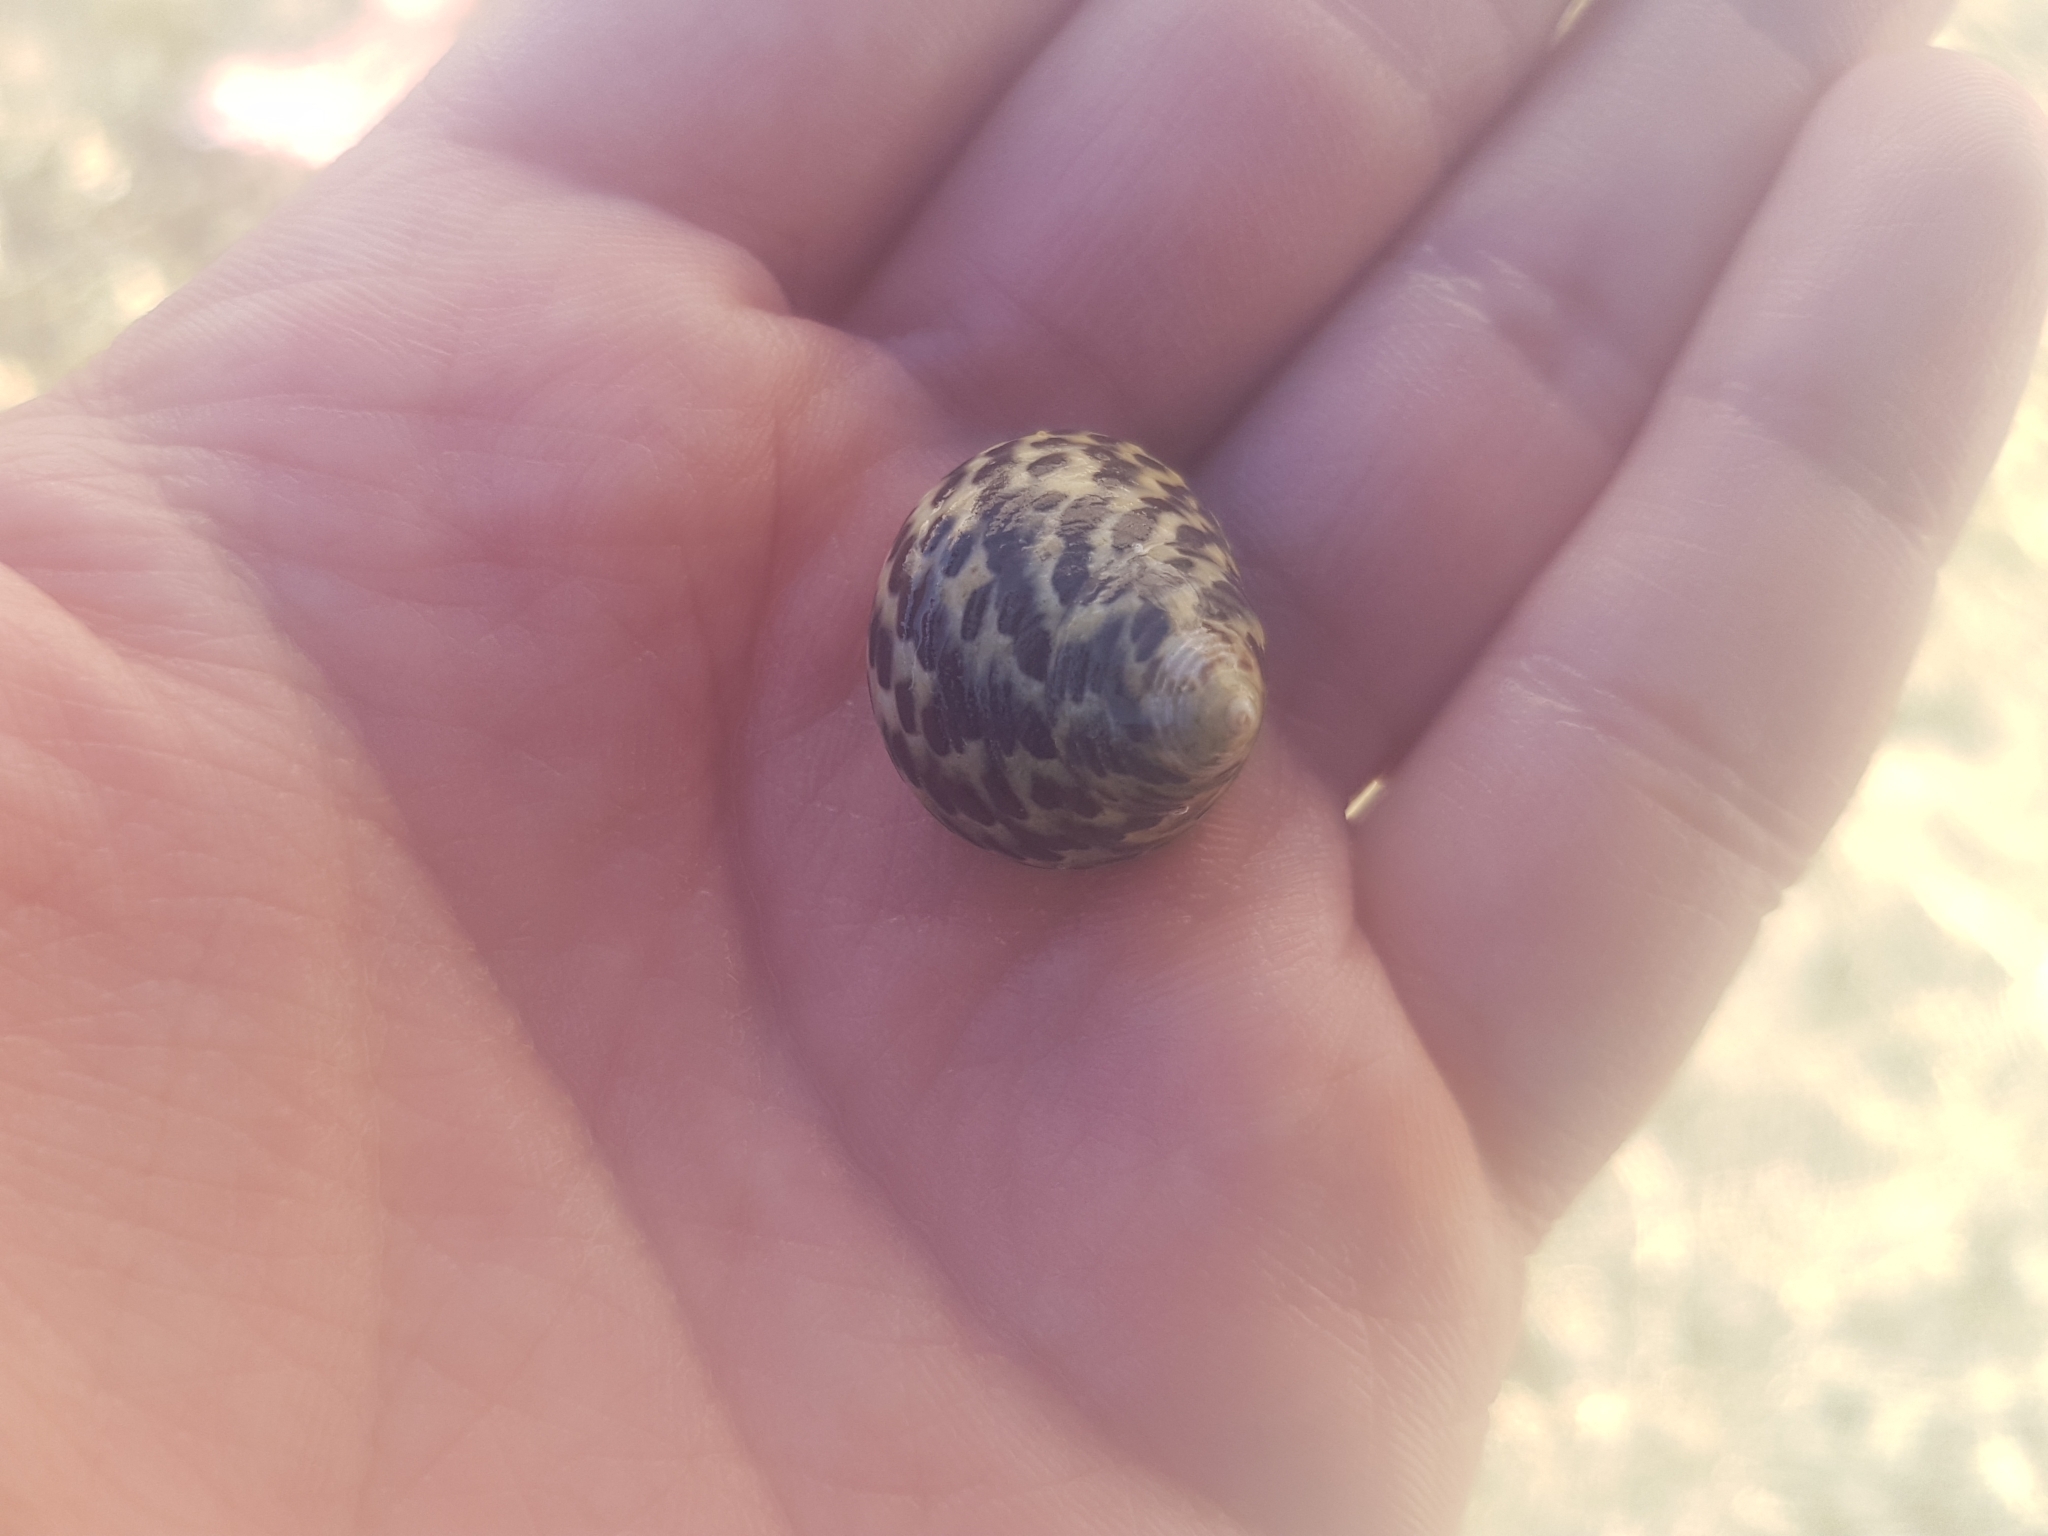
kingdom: Animalia
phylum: Mollusca
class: Gastropoda
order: Trochida
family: Trochidae
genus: Phorcus
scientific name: Phorcus turbinatus
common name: Turbinate monodont
